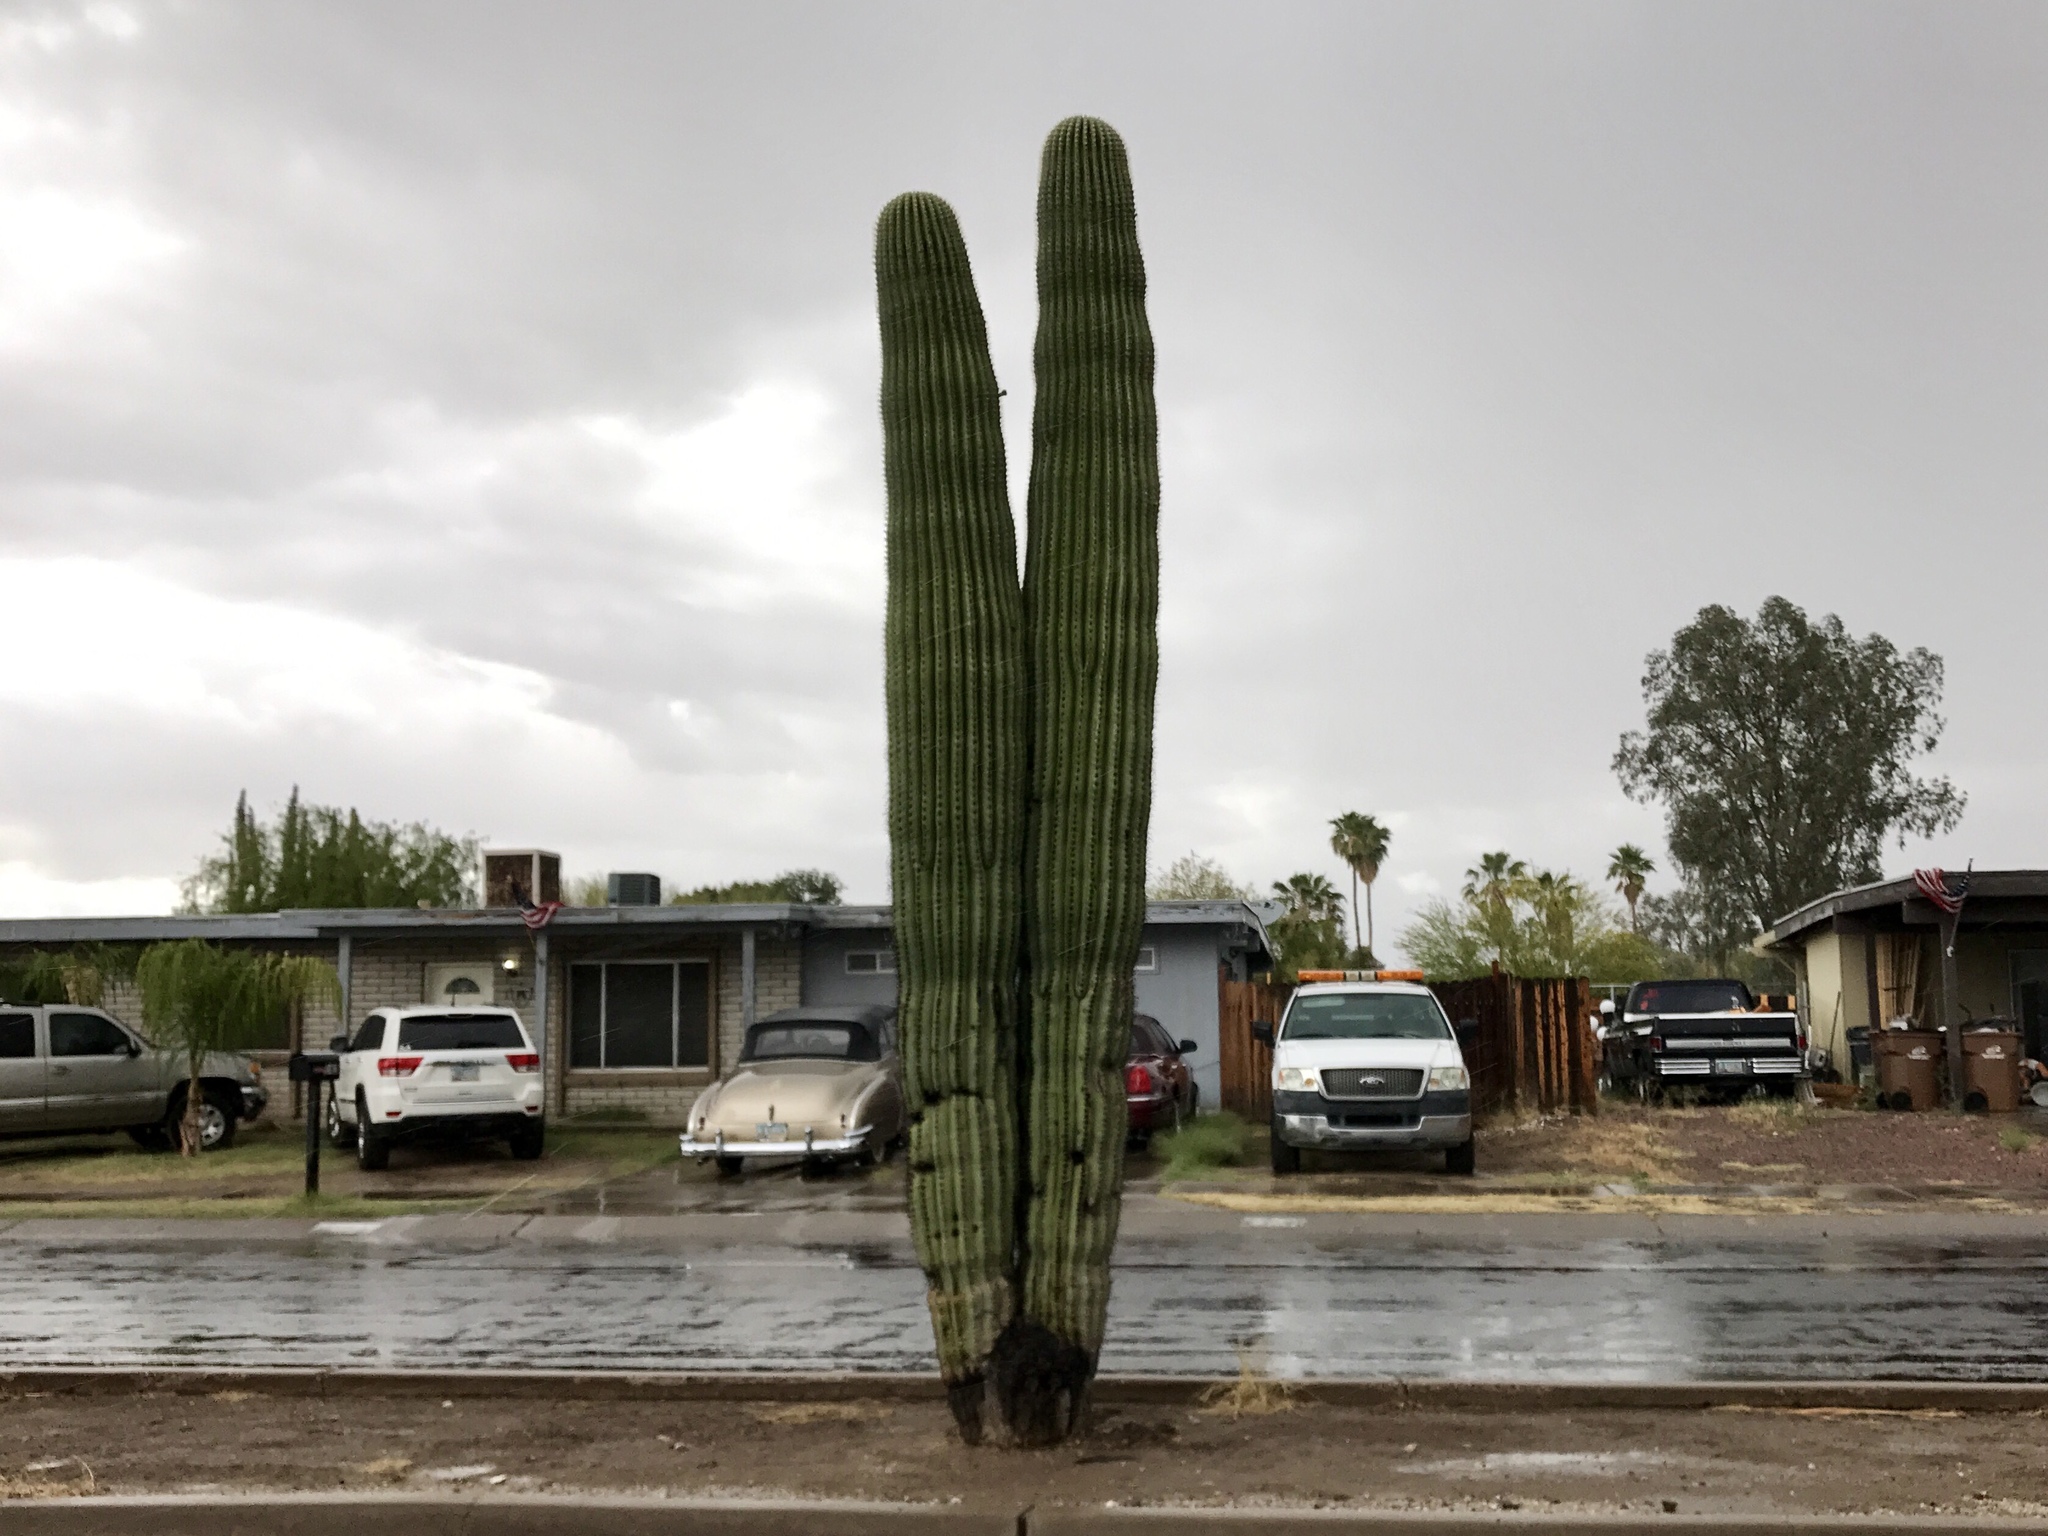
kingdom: Plantae
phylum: Tracheophyta
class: Magnoliopsida
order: Caryophyllales
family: Cactaceae
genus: Carnegiea
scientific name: Carnegiea gigantea
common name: Saguaro
